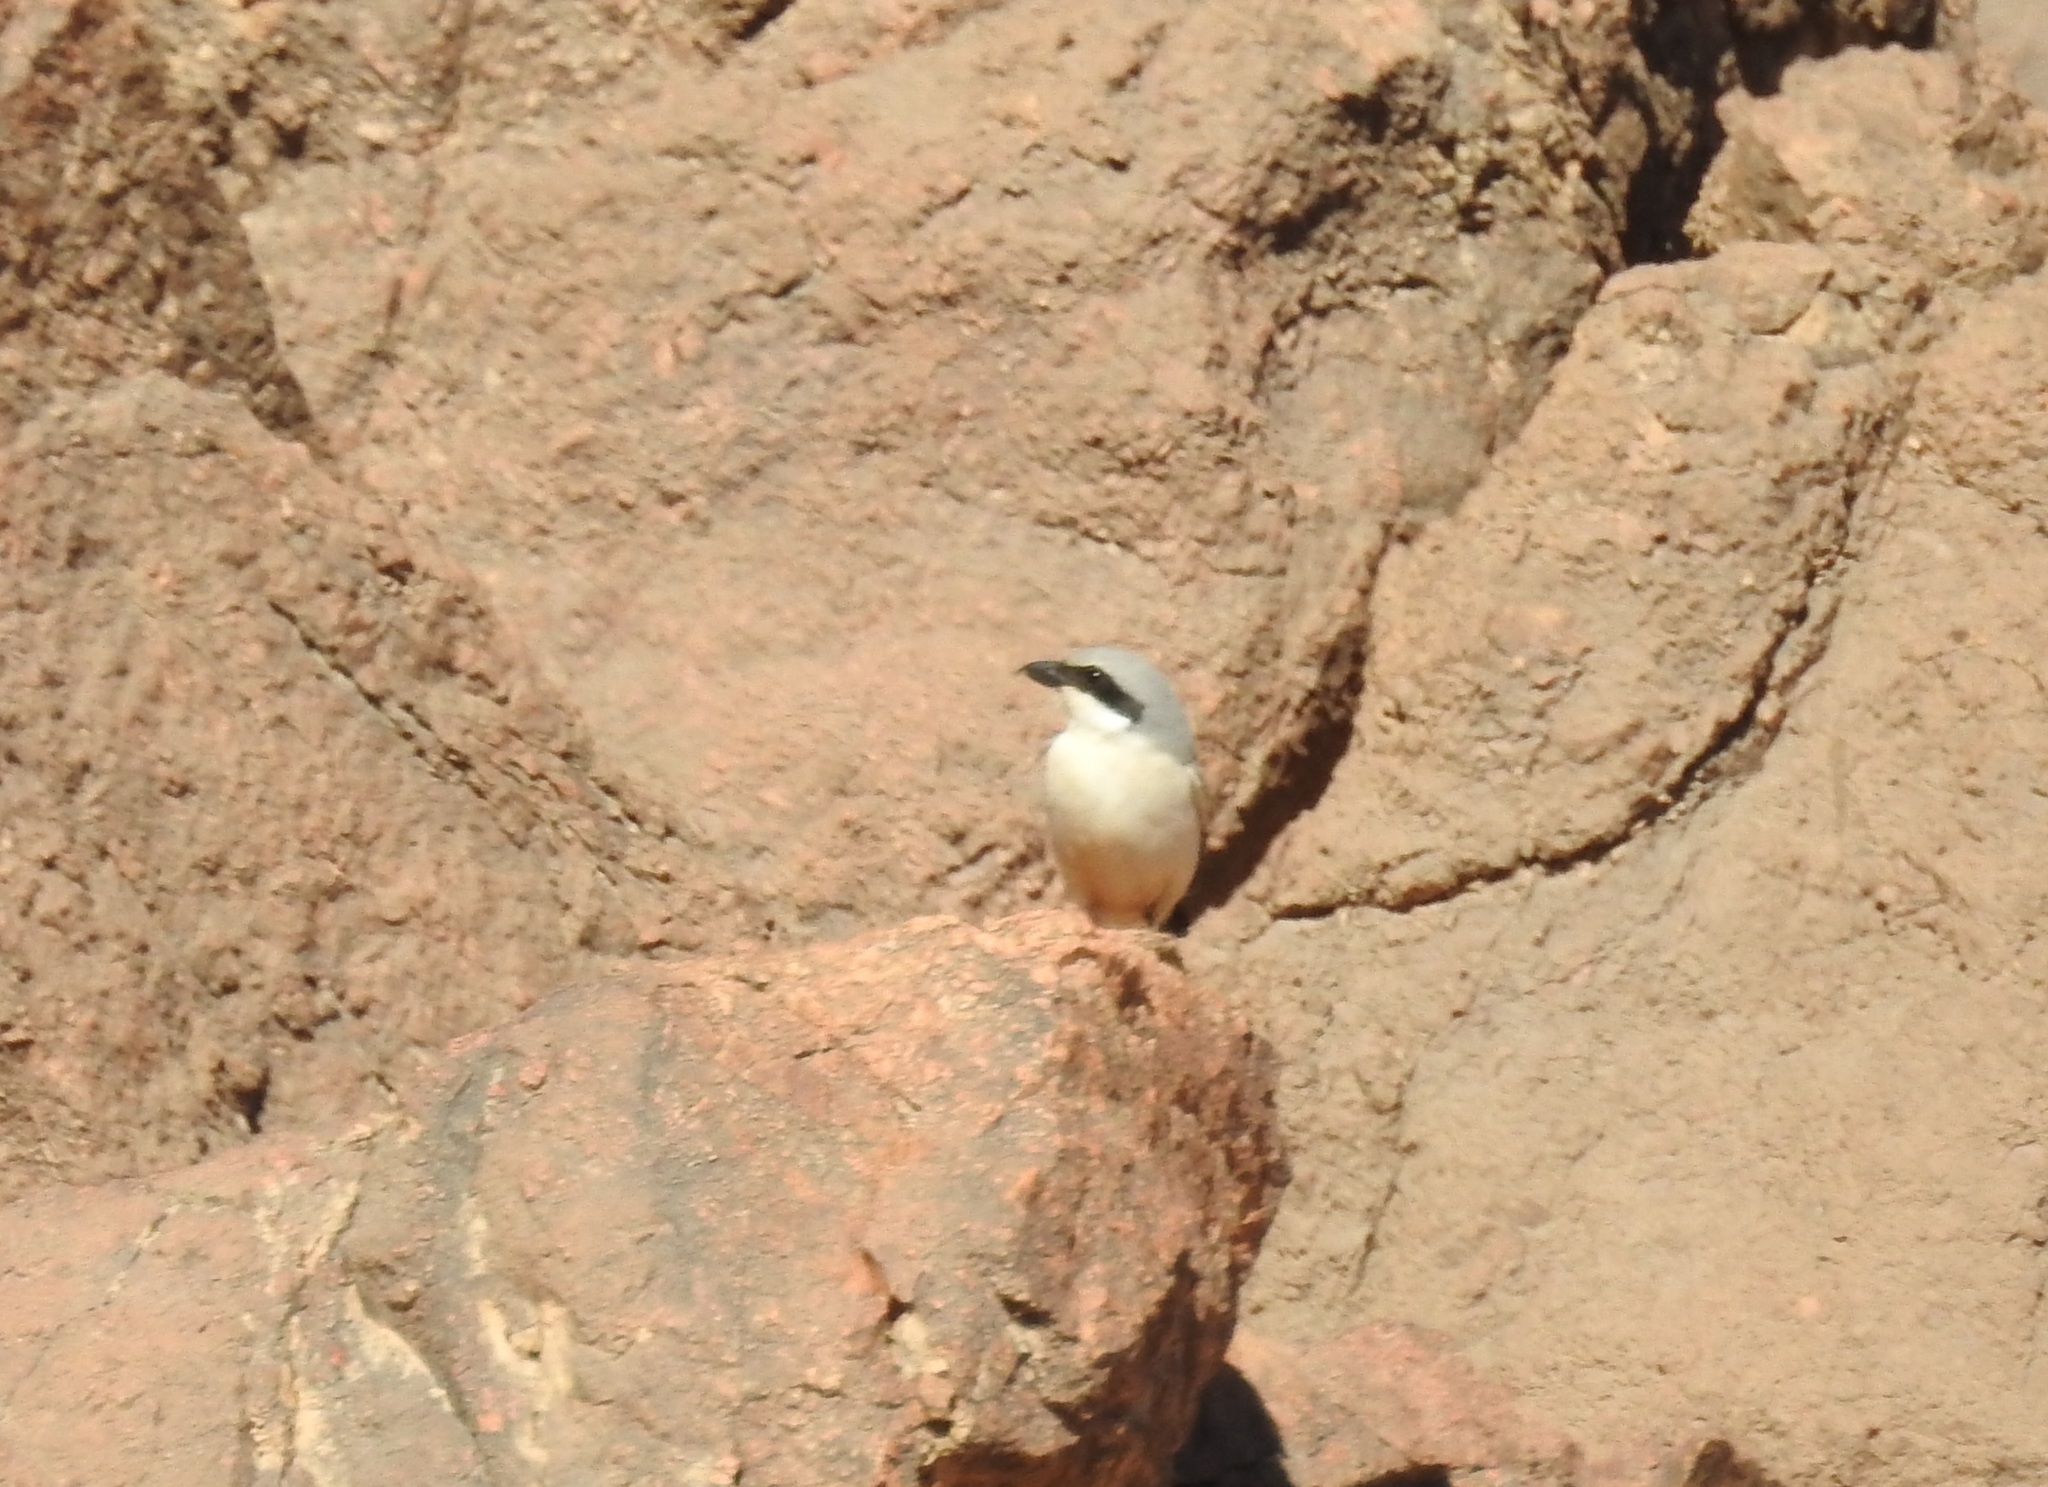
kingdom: Animalia
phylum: Chordata
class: Aves
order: Passeriformes
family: Laniidae
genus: Lanius
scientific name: Lanius excubitor
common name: Great grey shrike
